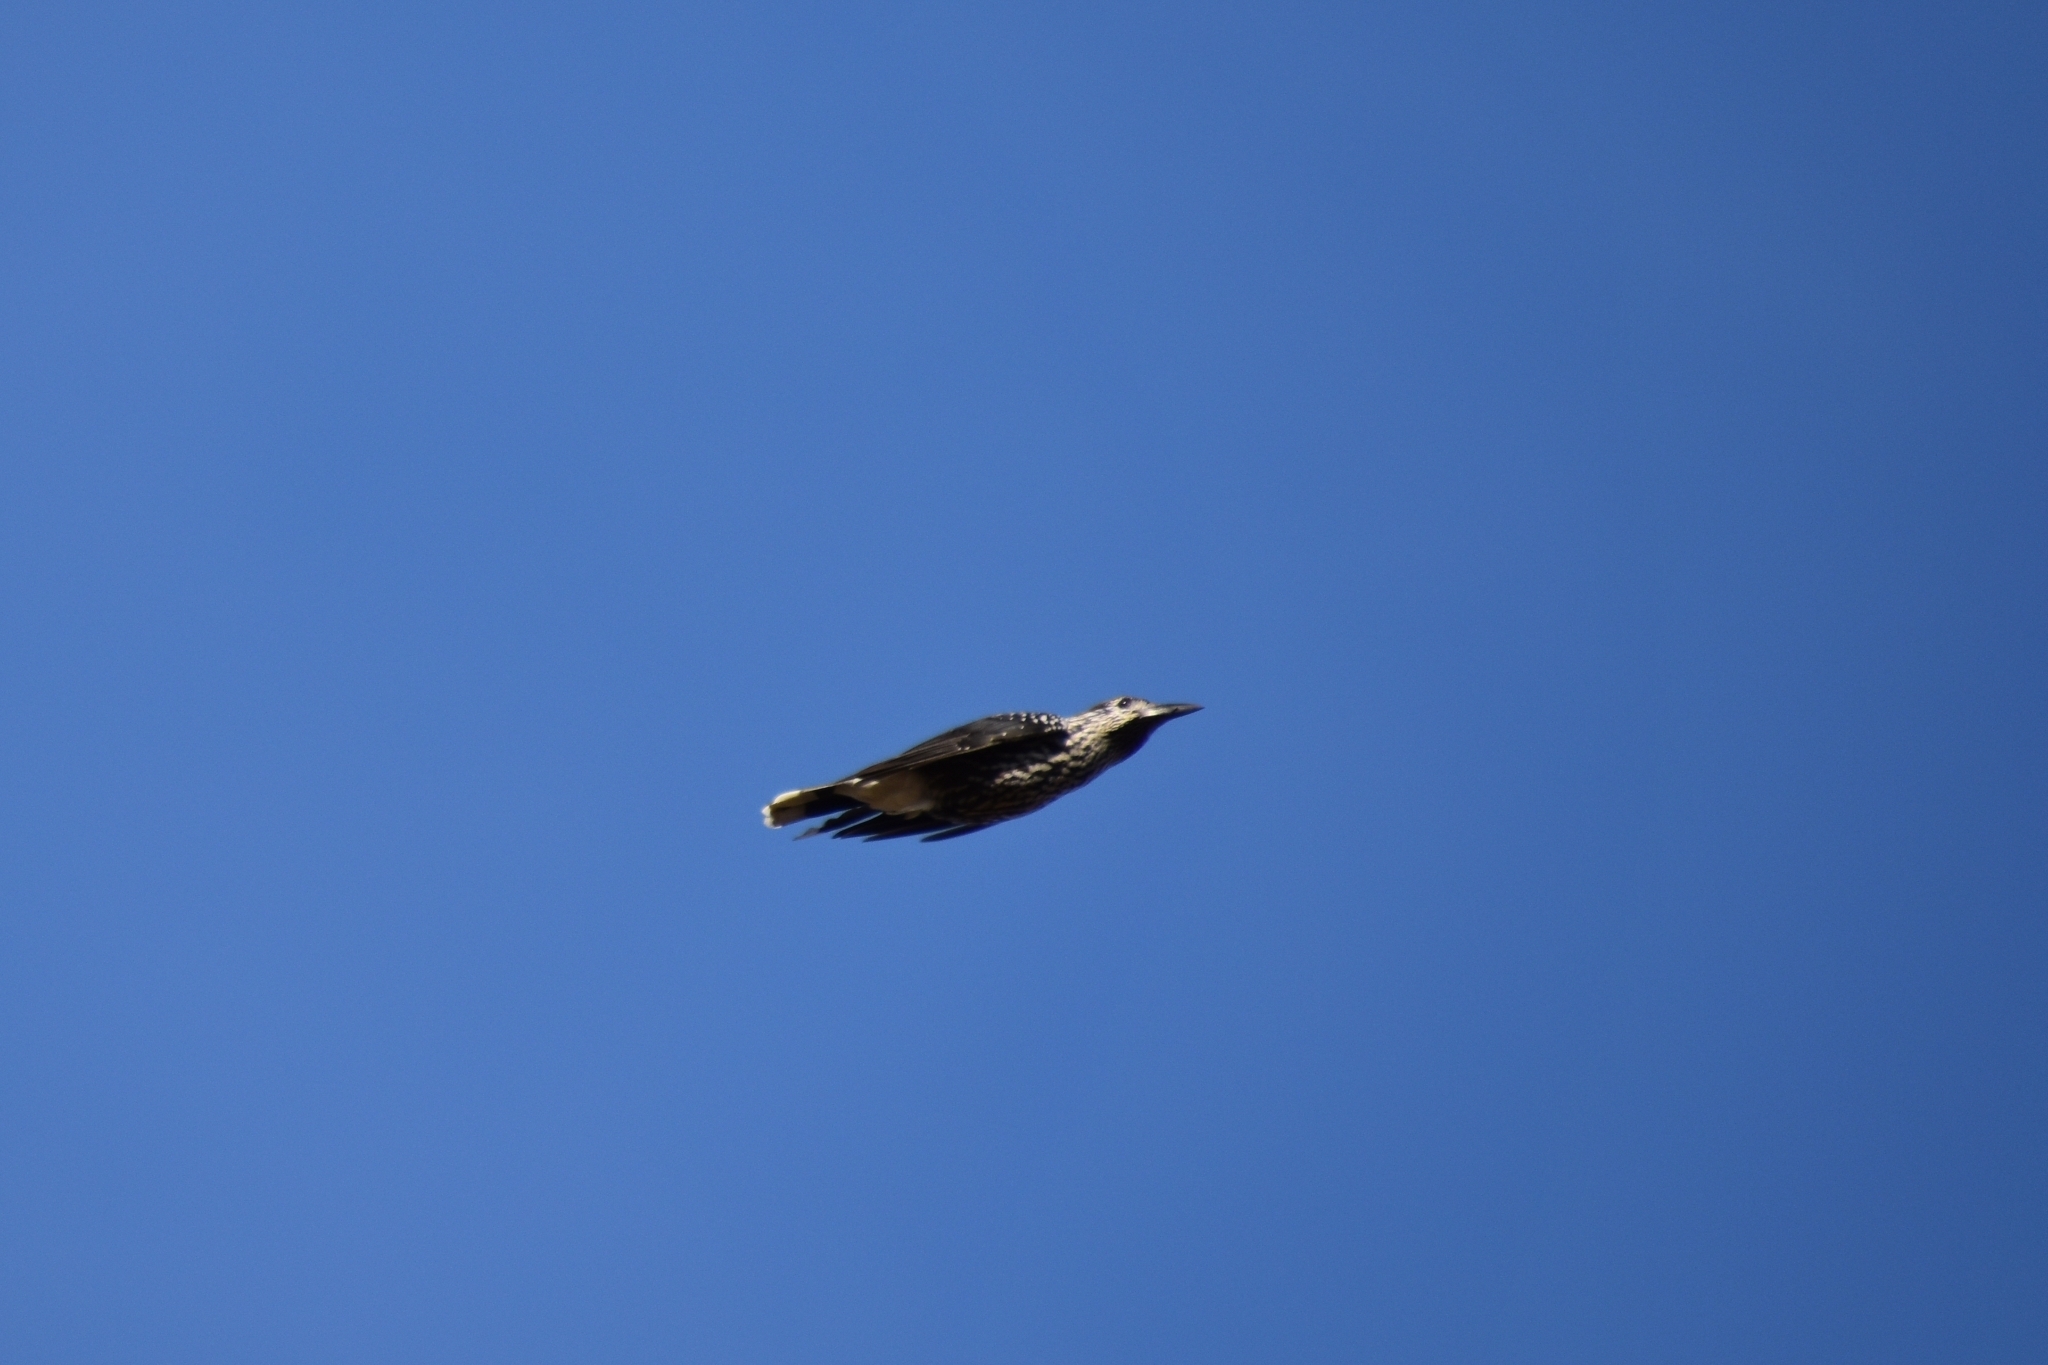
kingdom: Animalia
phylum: Chordata
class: Aves
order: Passeriformes
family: Corvidae
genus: Nucifraga
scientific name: Nucifraga caryocatactes
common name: Spotted nutcracker
